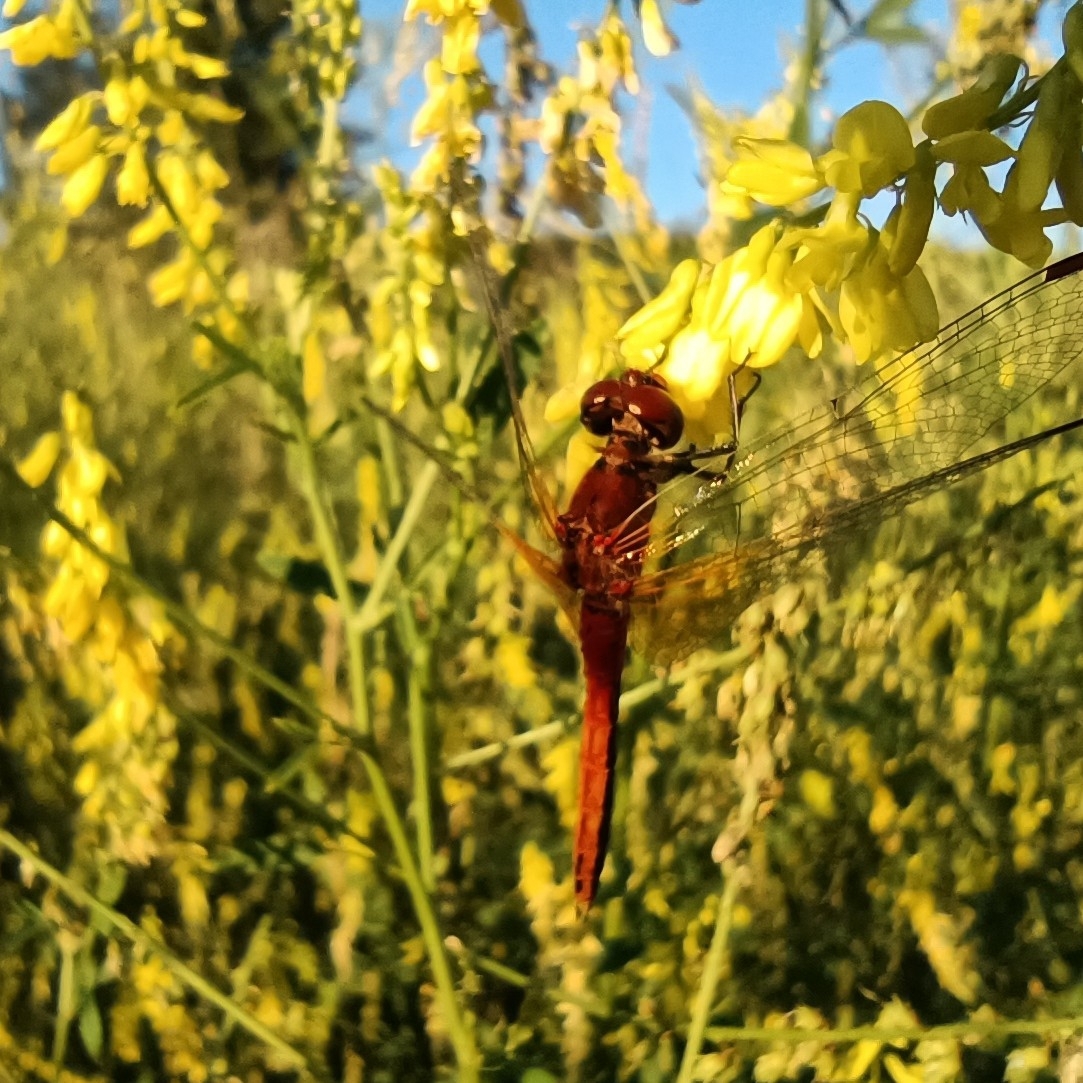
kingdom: Animalia
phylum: Arthropoda
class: Insecta
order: Odonata
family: Libellulidae
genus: Sympetrum
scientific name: Sympetrum flaveolum
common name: Yellow-winged darter
